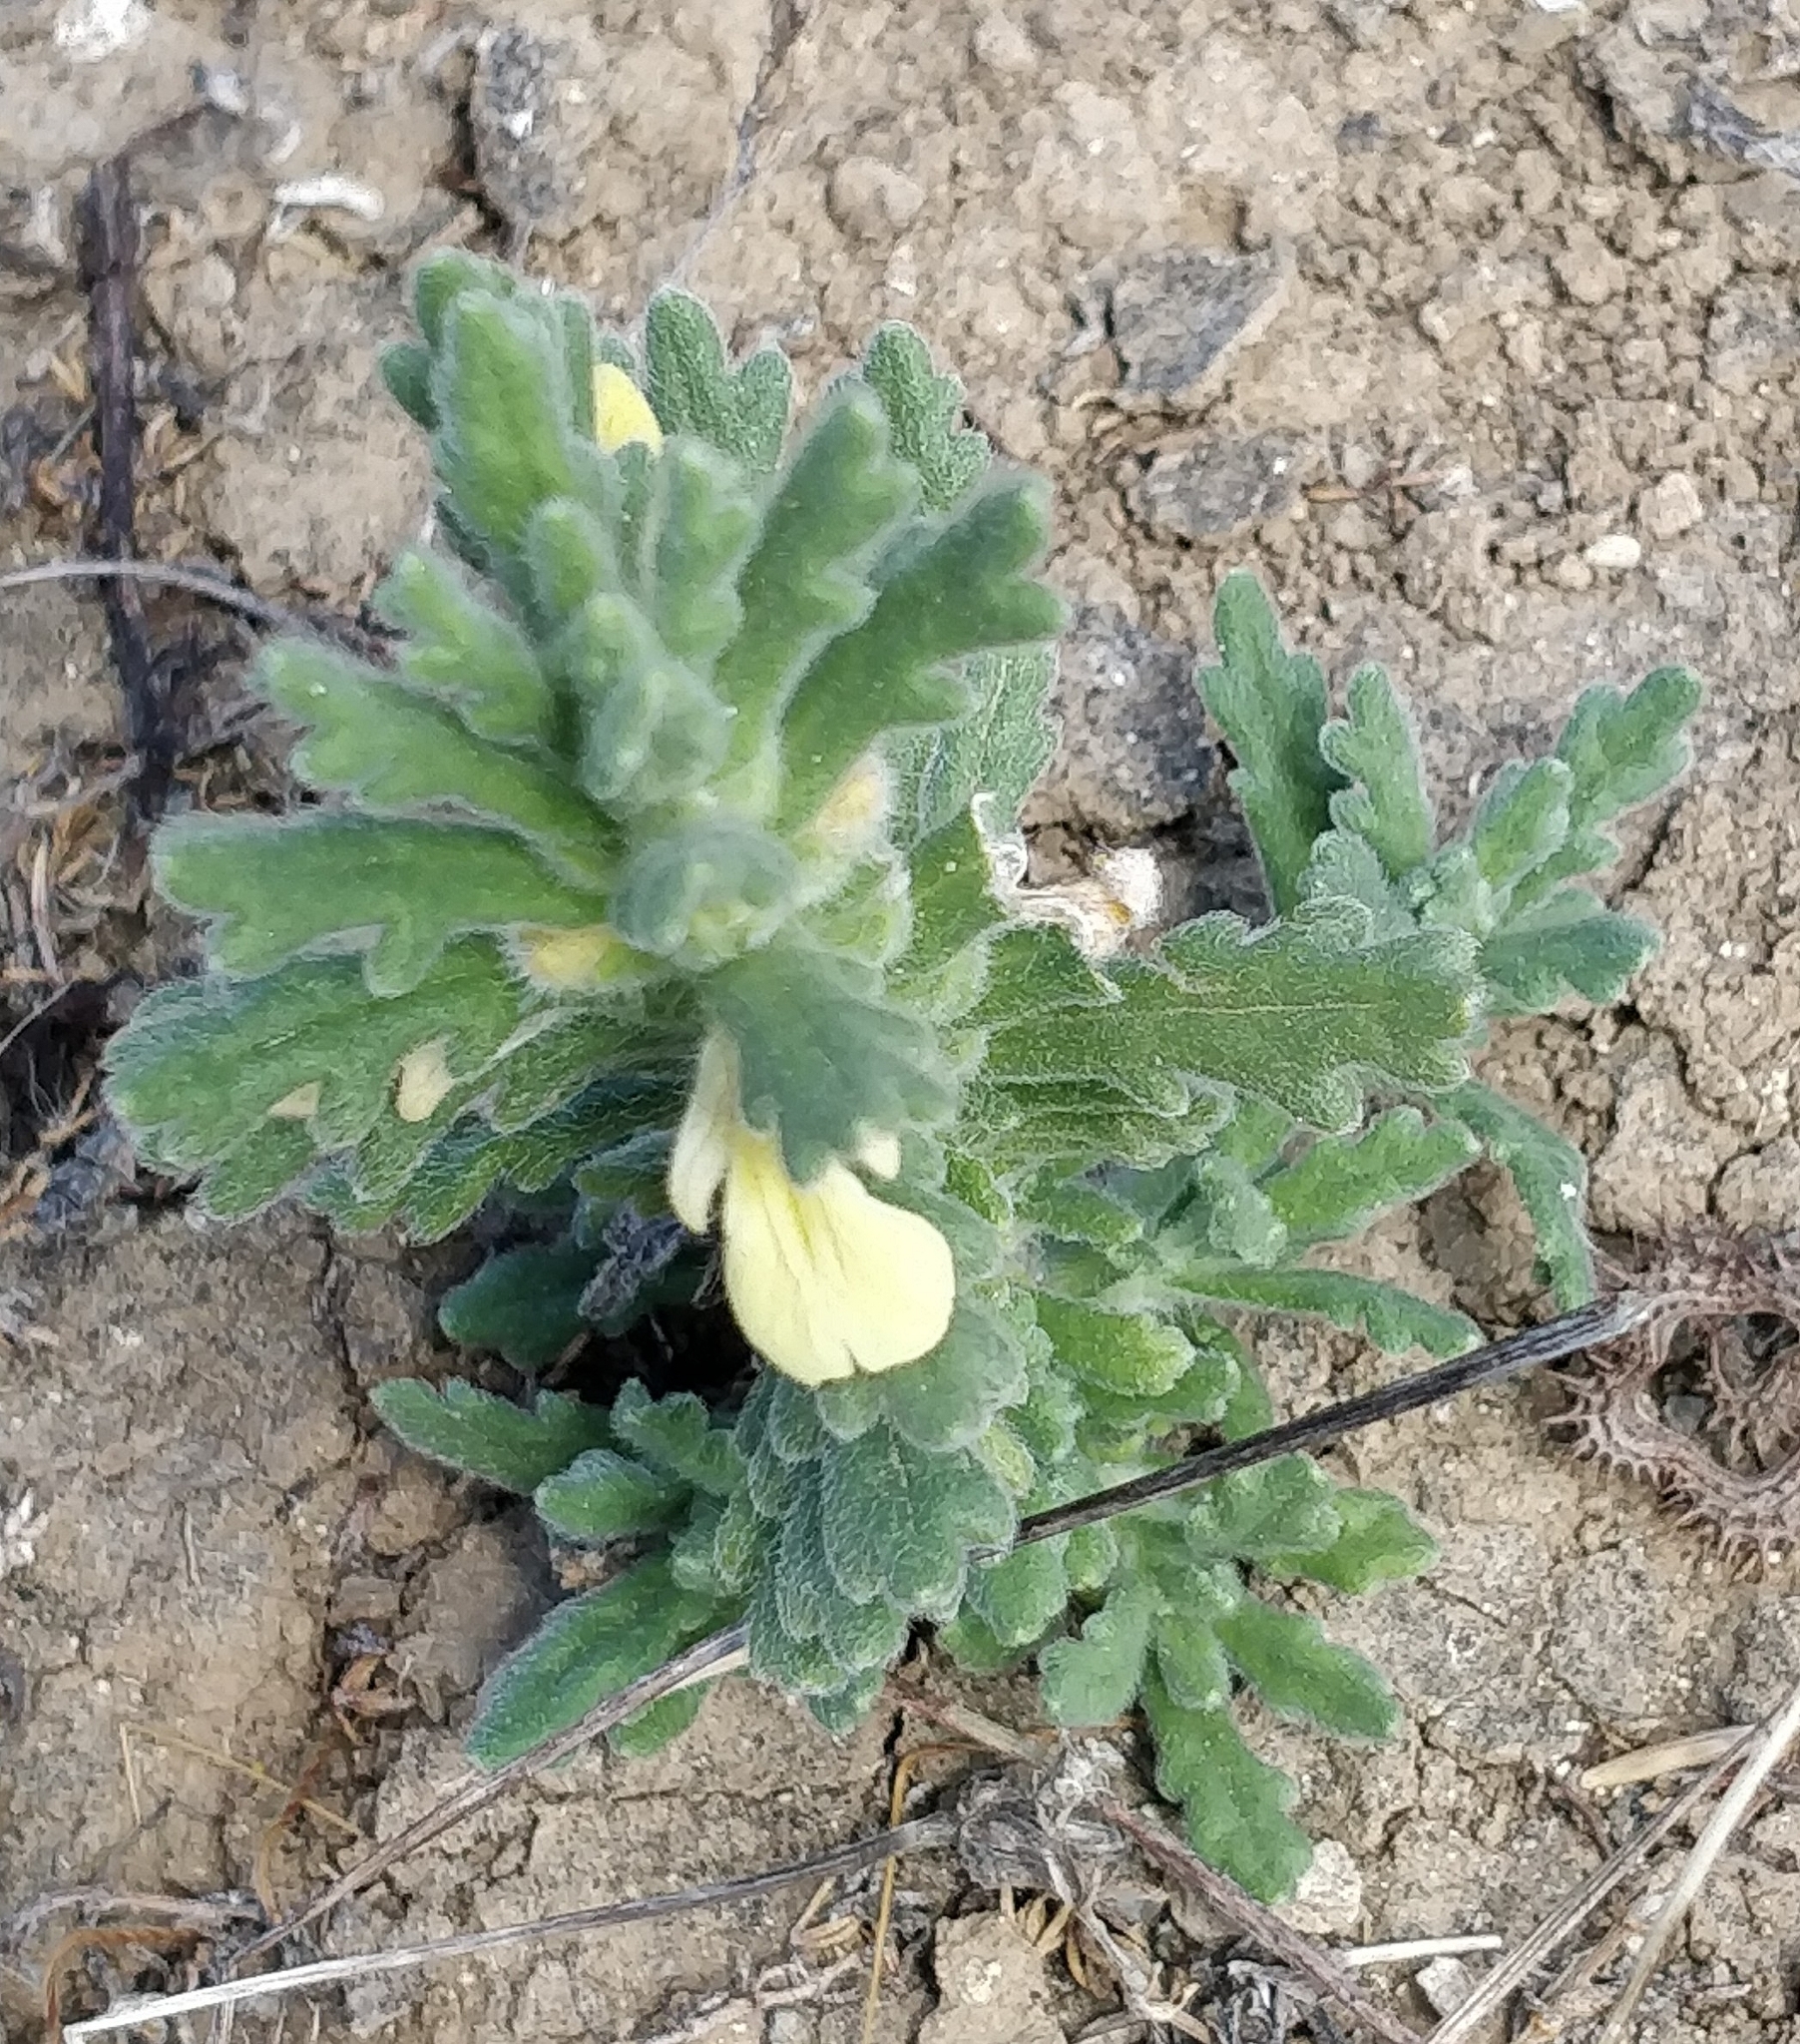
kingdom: Plantae
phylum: Tracheophyta
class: Magnoliopsida
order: Lamiales
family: Lamiaceae
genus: Ajuga
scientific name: Ajuga iva
